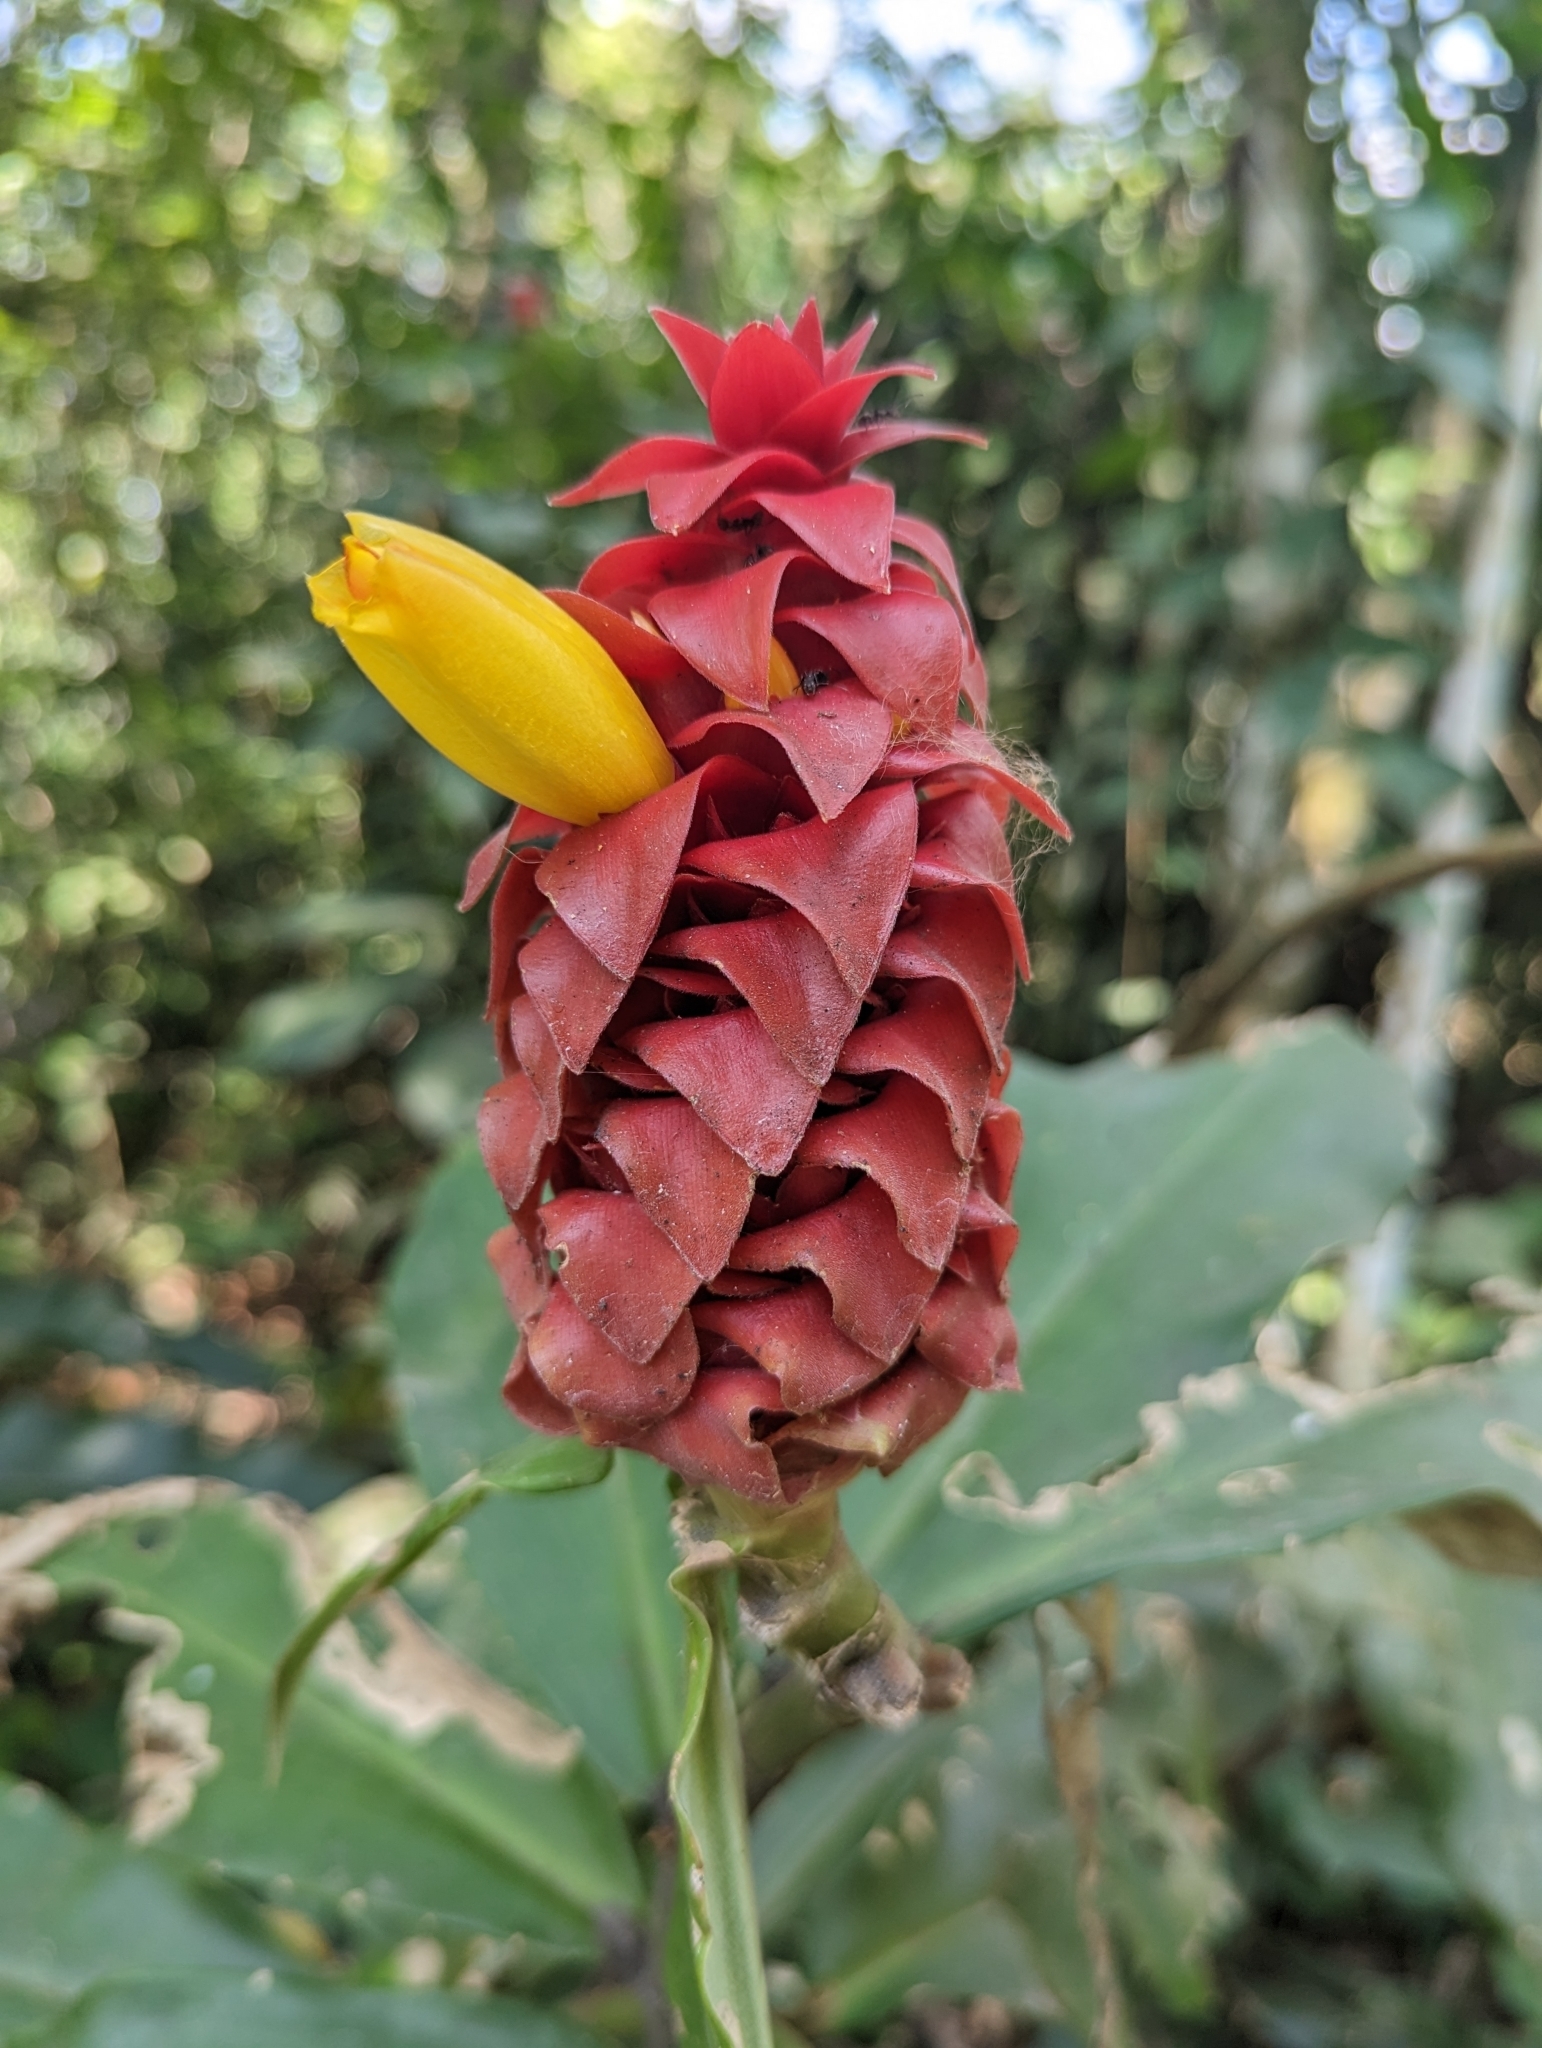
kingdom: Plantae
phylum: Tracheophyta
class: Liliopsida
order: Zingiberales
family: Costaceae
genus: Costus
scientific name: Costus comosus
